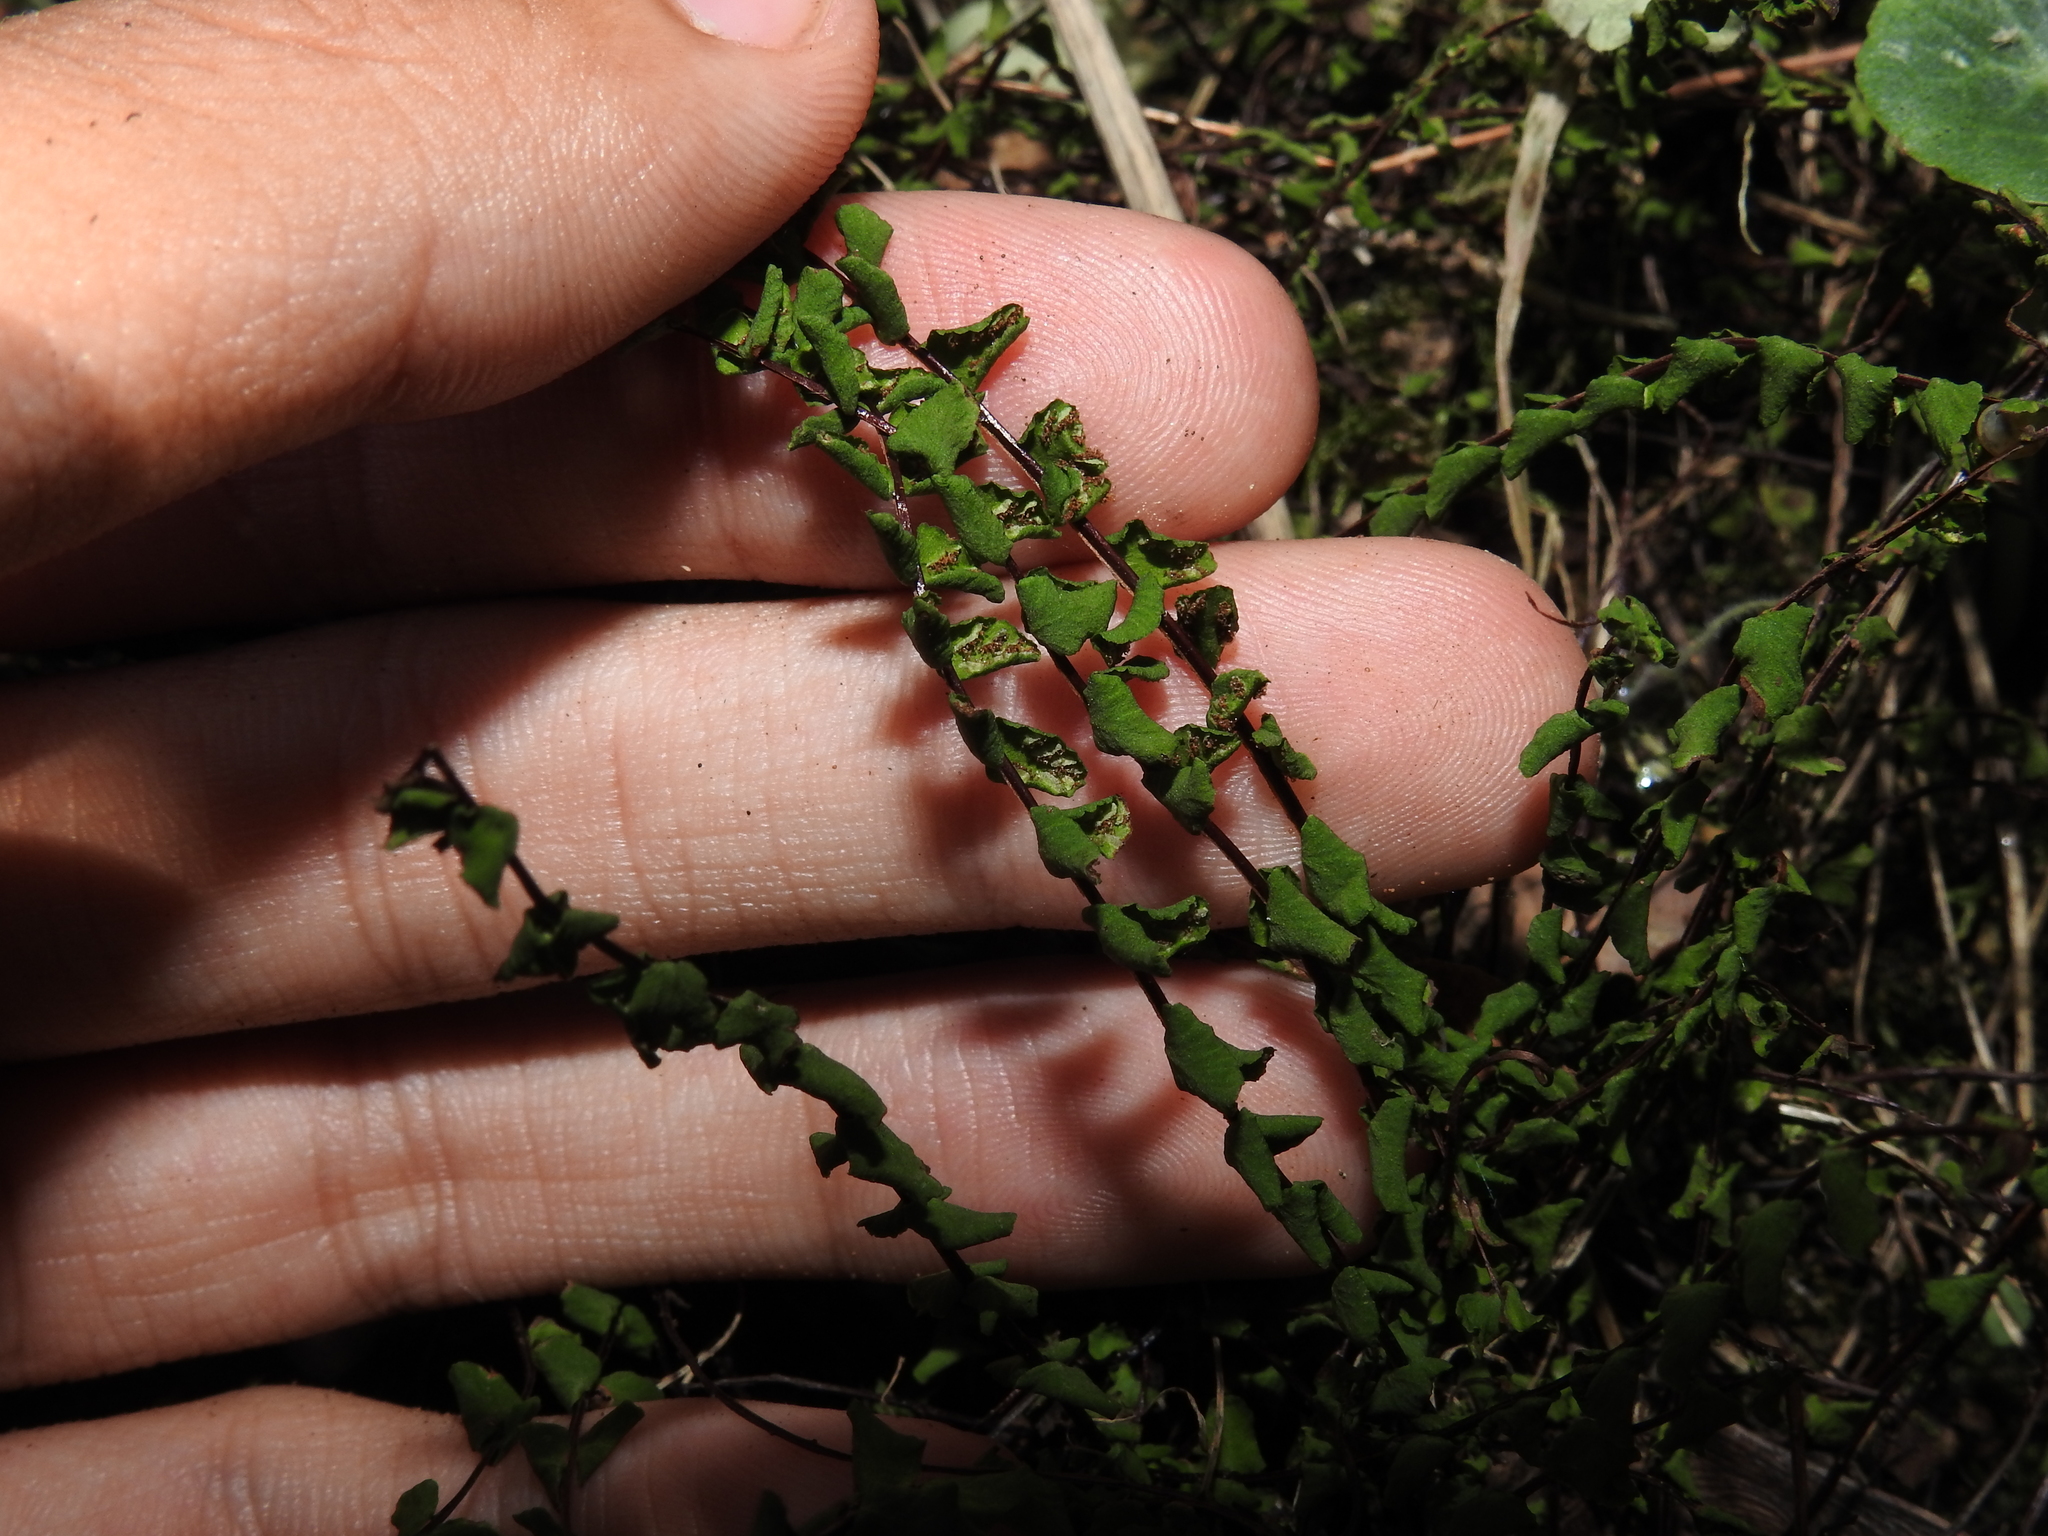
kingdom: Plantae
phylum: Tracheophyta
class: Polypodiopsida
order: Polypodiales
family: Aspleniaceae
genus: Asplenium
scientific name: Asplenium trichomanes
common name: Maidenhair spleenwort
